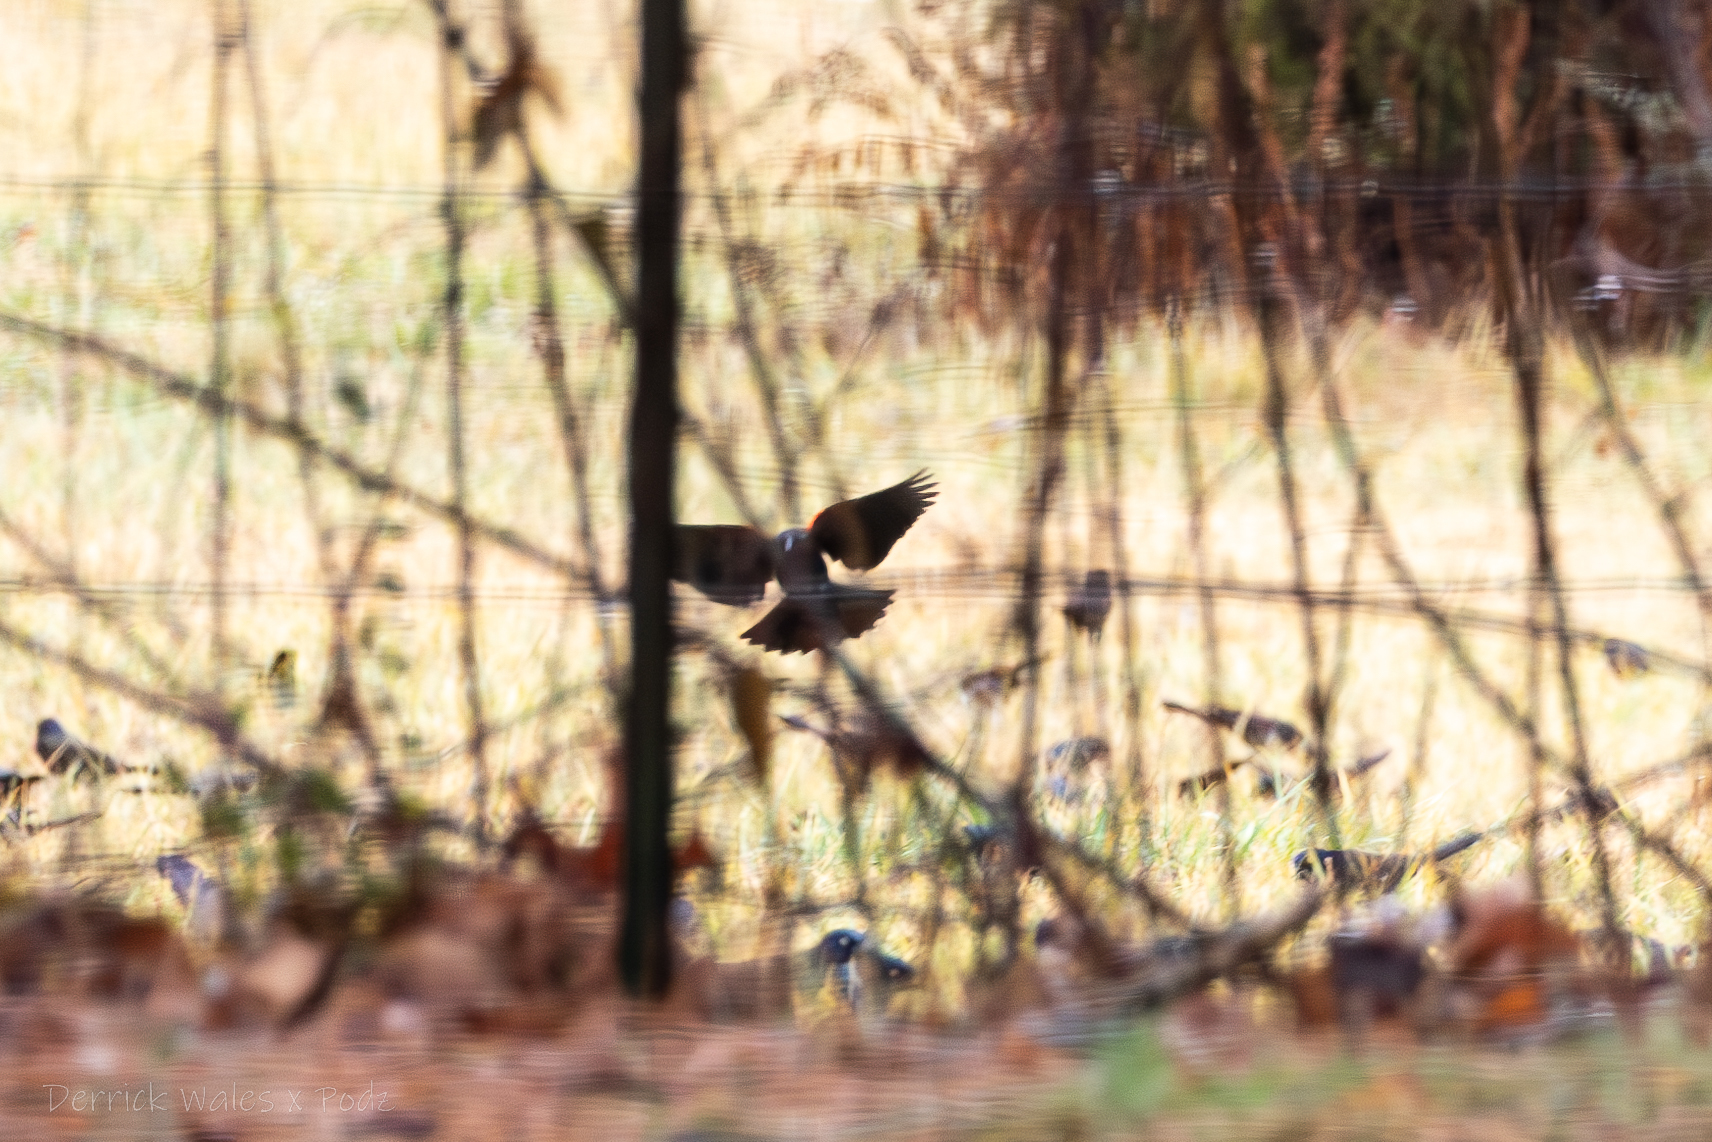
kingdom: Animalia
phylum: Chordata
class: Aves
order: Passeriformes
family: Icteridae
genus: Agelaius
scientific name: Agelaius phoeniceus
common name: Red-winged blackbird
